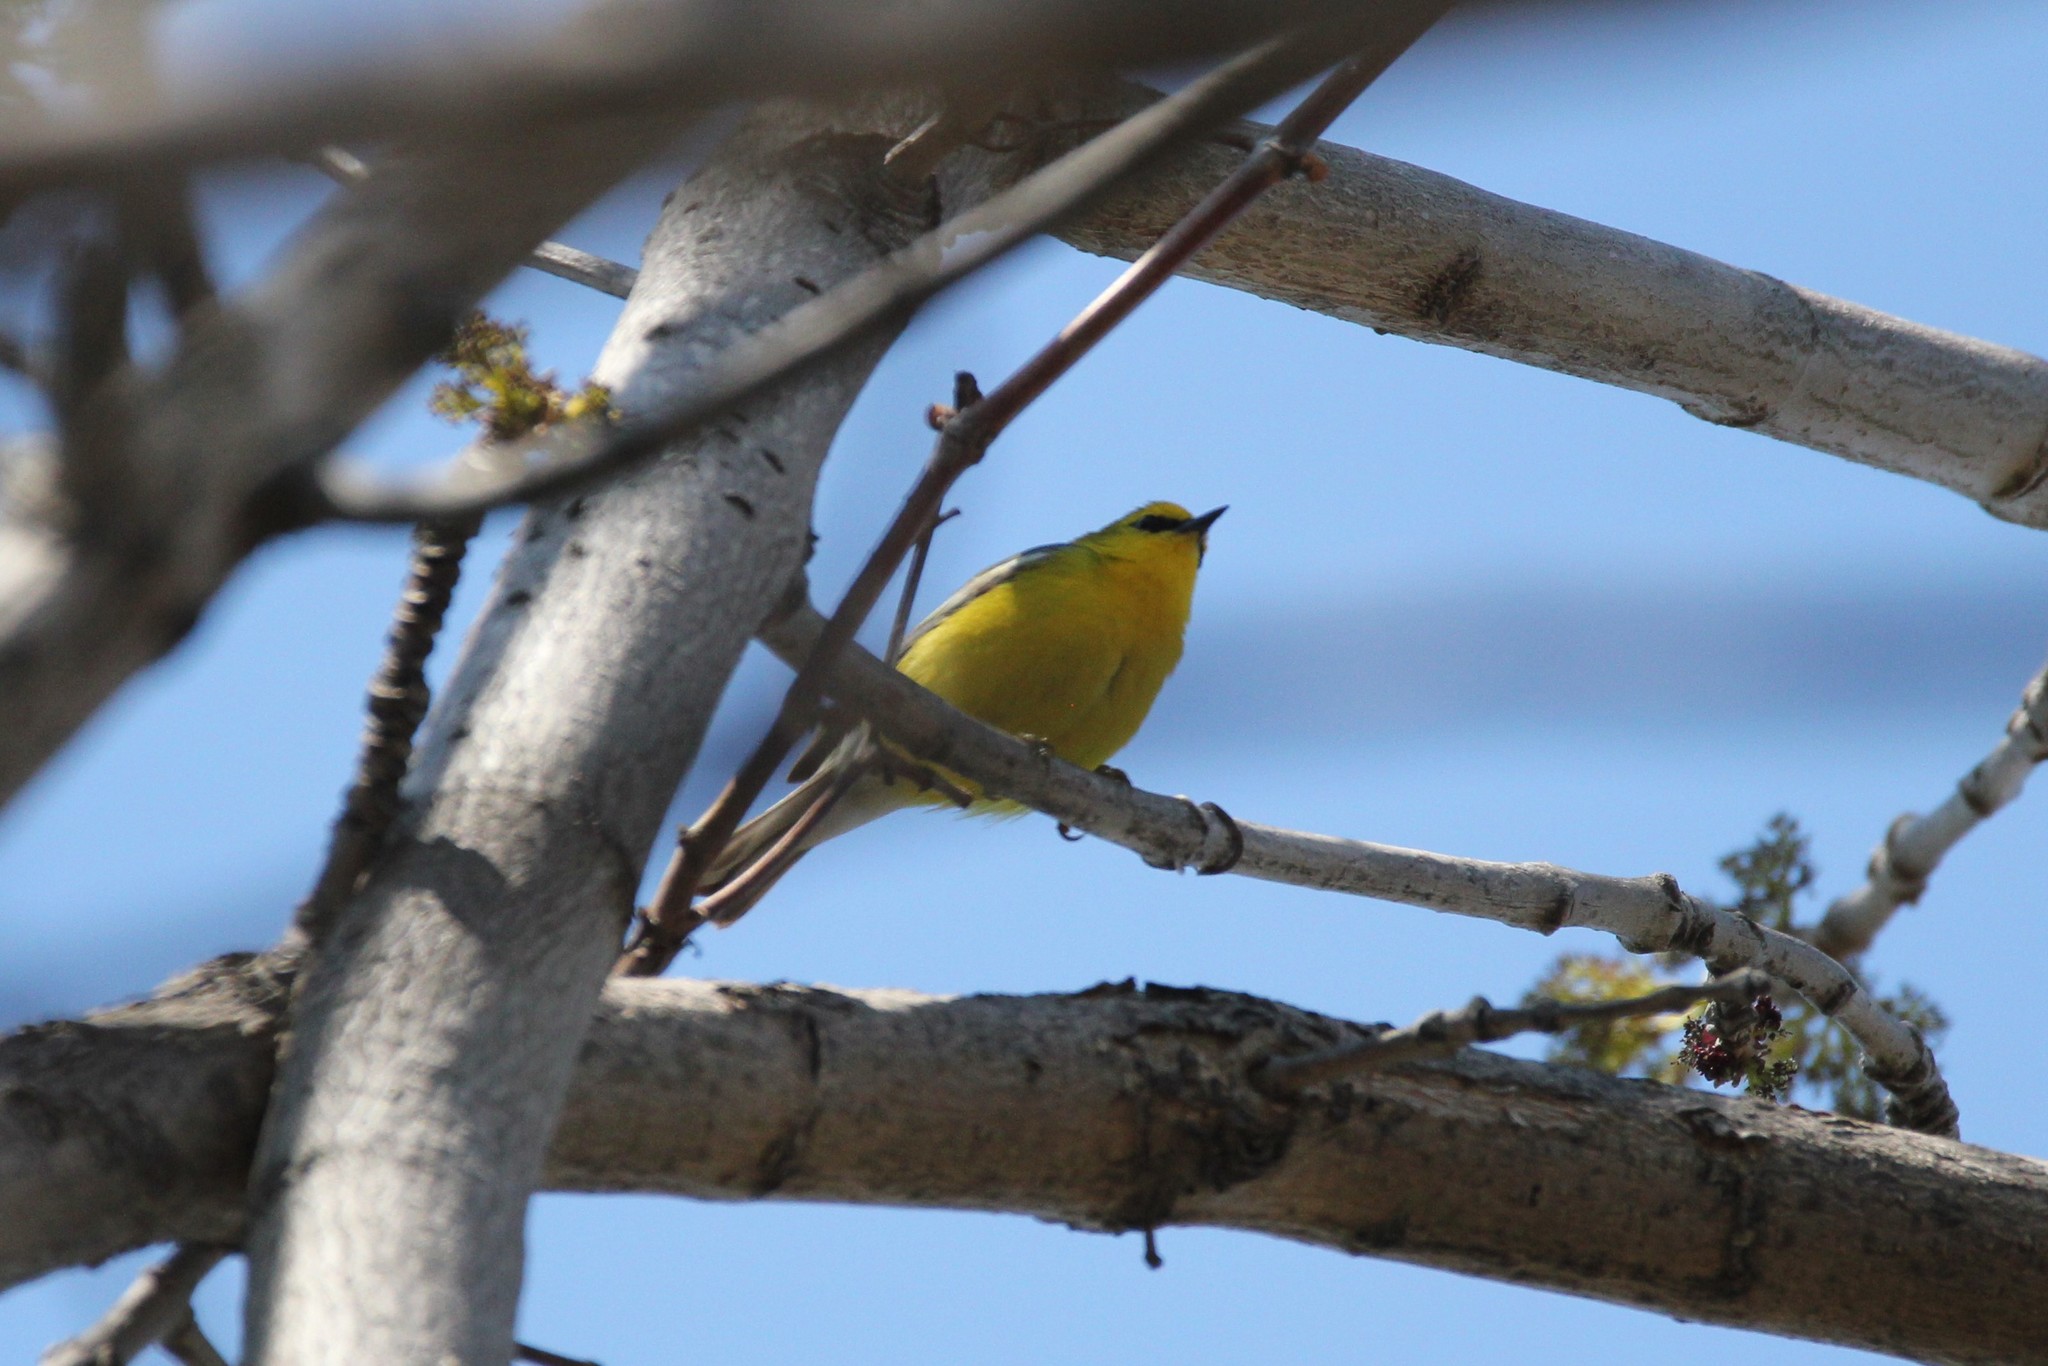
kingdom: Animalia
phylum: Chordata
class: Aves
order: Passeriformes
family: Parulidae
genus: Vermivora
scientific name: Vermivora cyanoptera
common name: Blue-winged warbler
